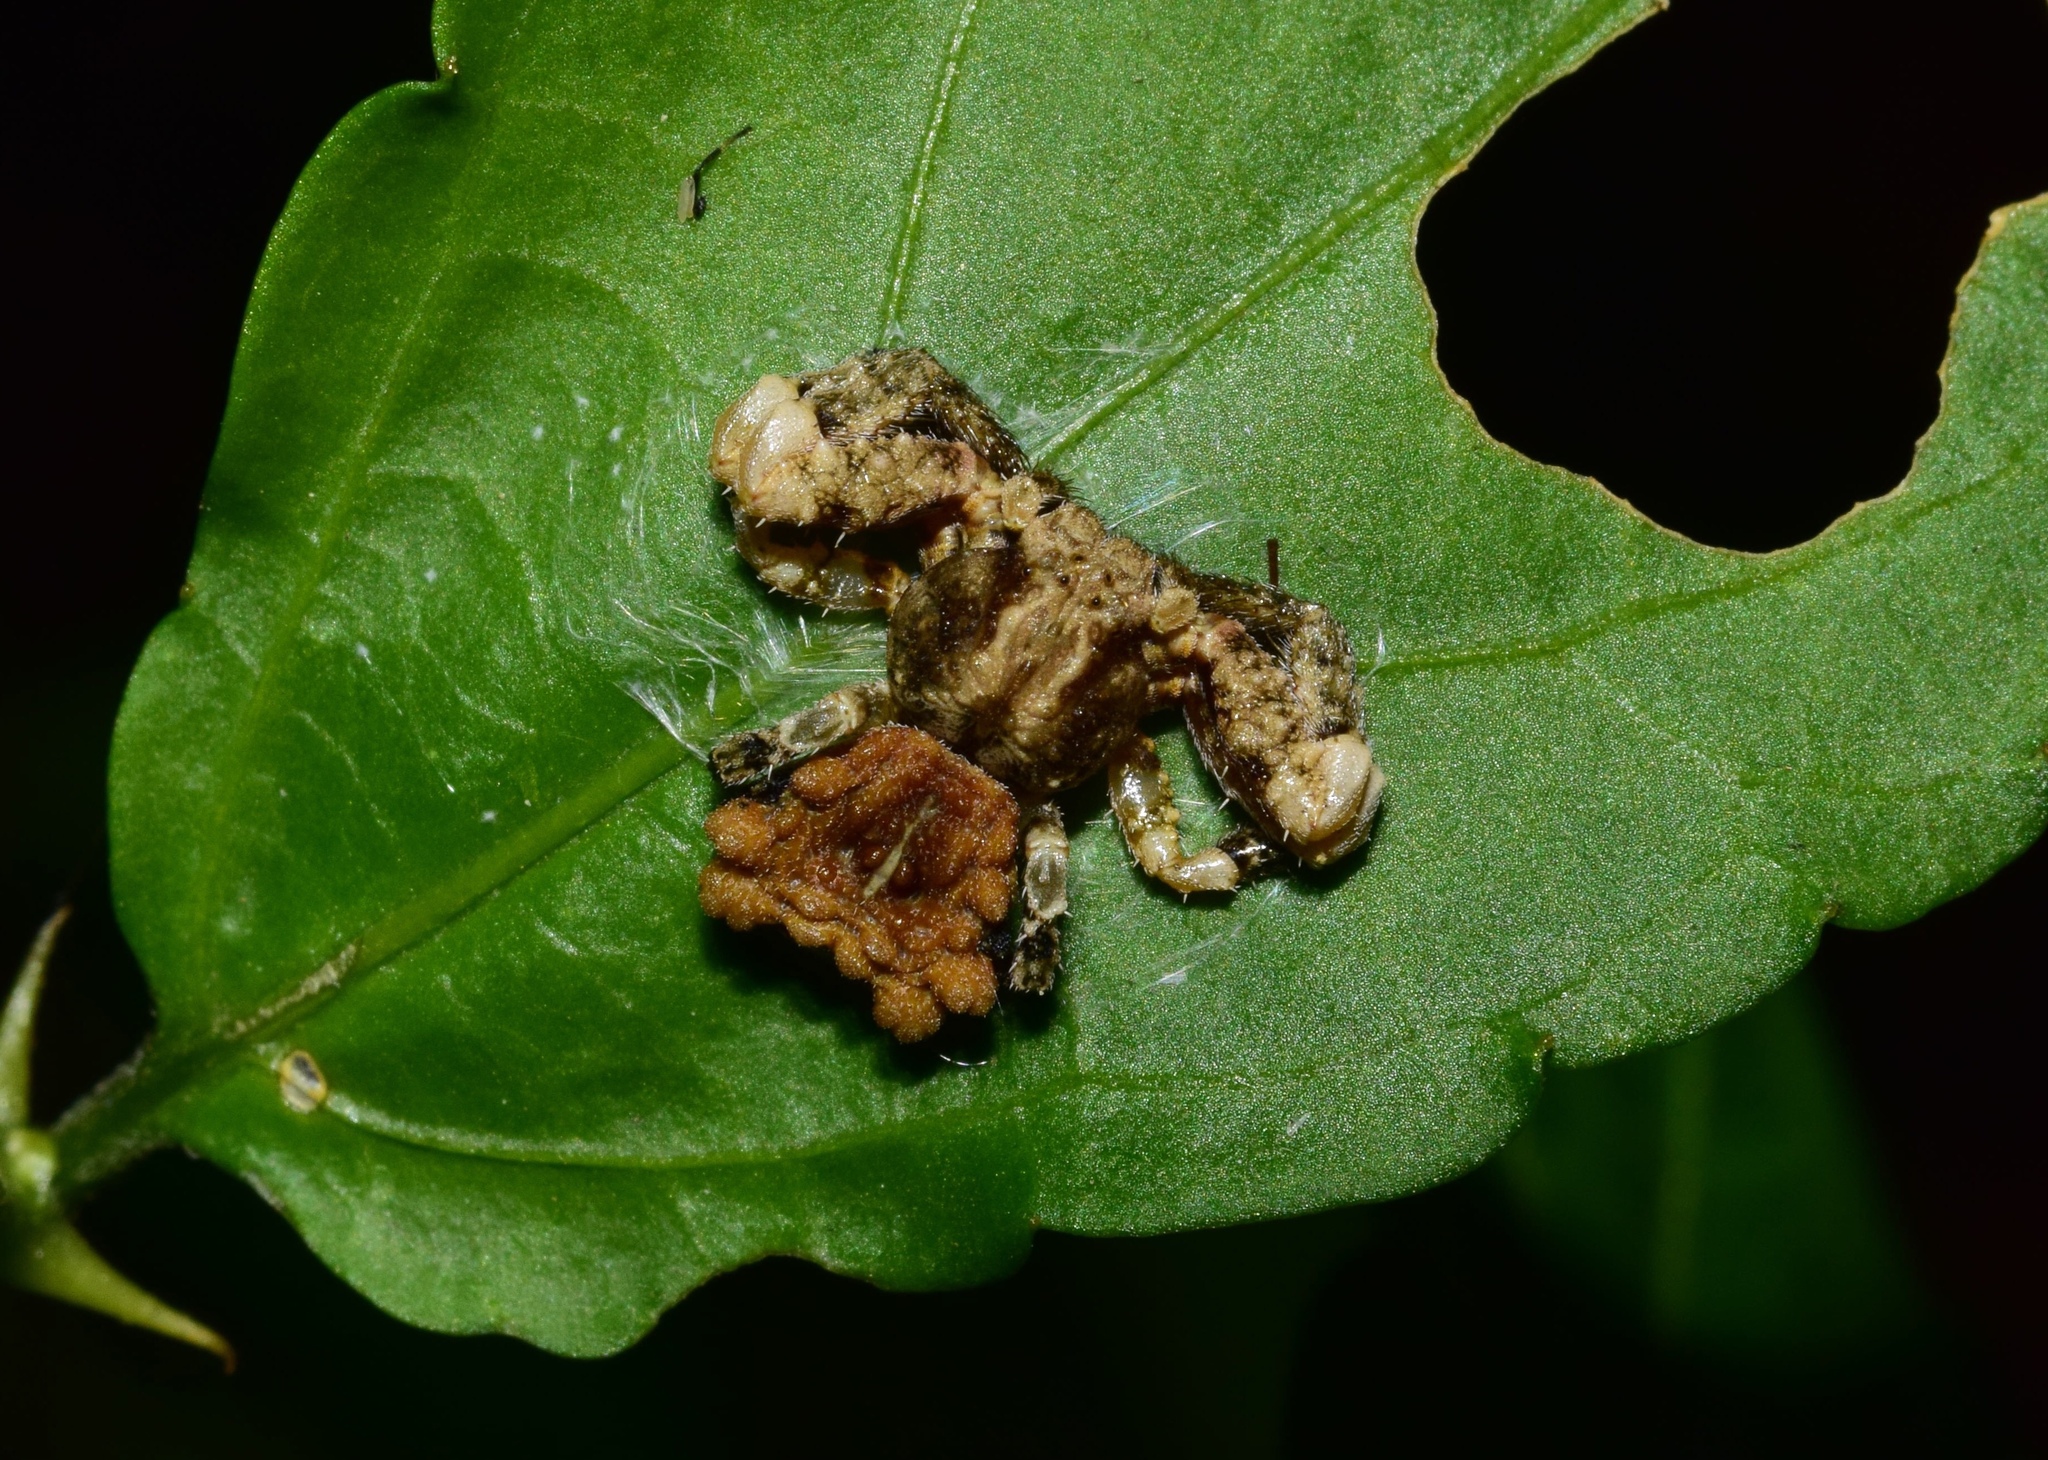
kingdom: Animalia
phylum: Arthropoda
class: Arachnida
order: Araneae
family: Thomisidae
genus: Phrynarachne
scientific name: Phrynarachne rugosa
